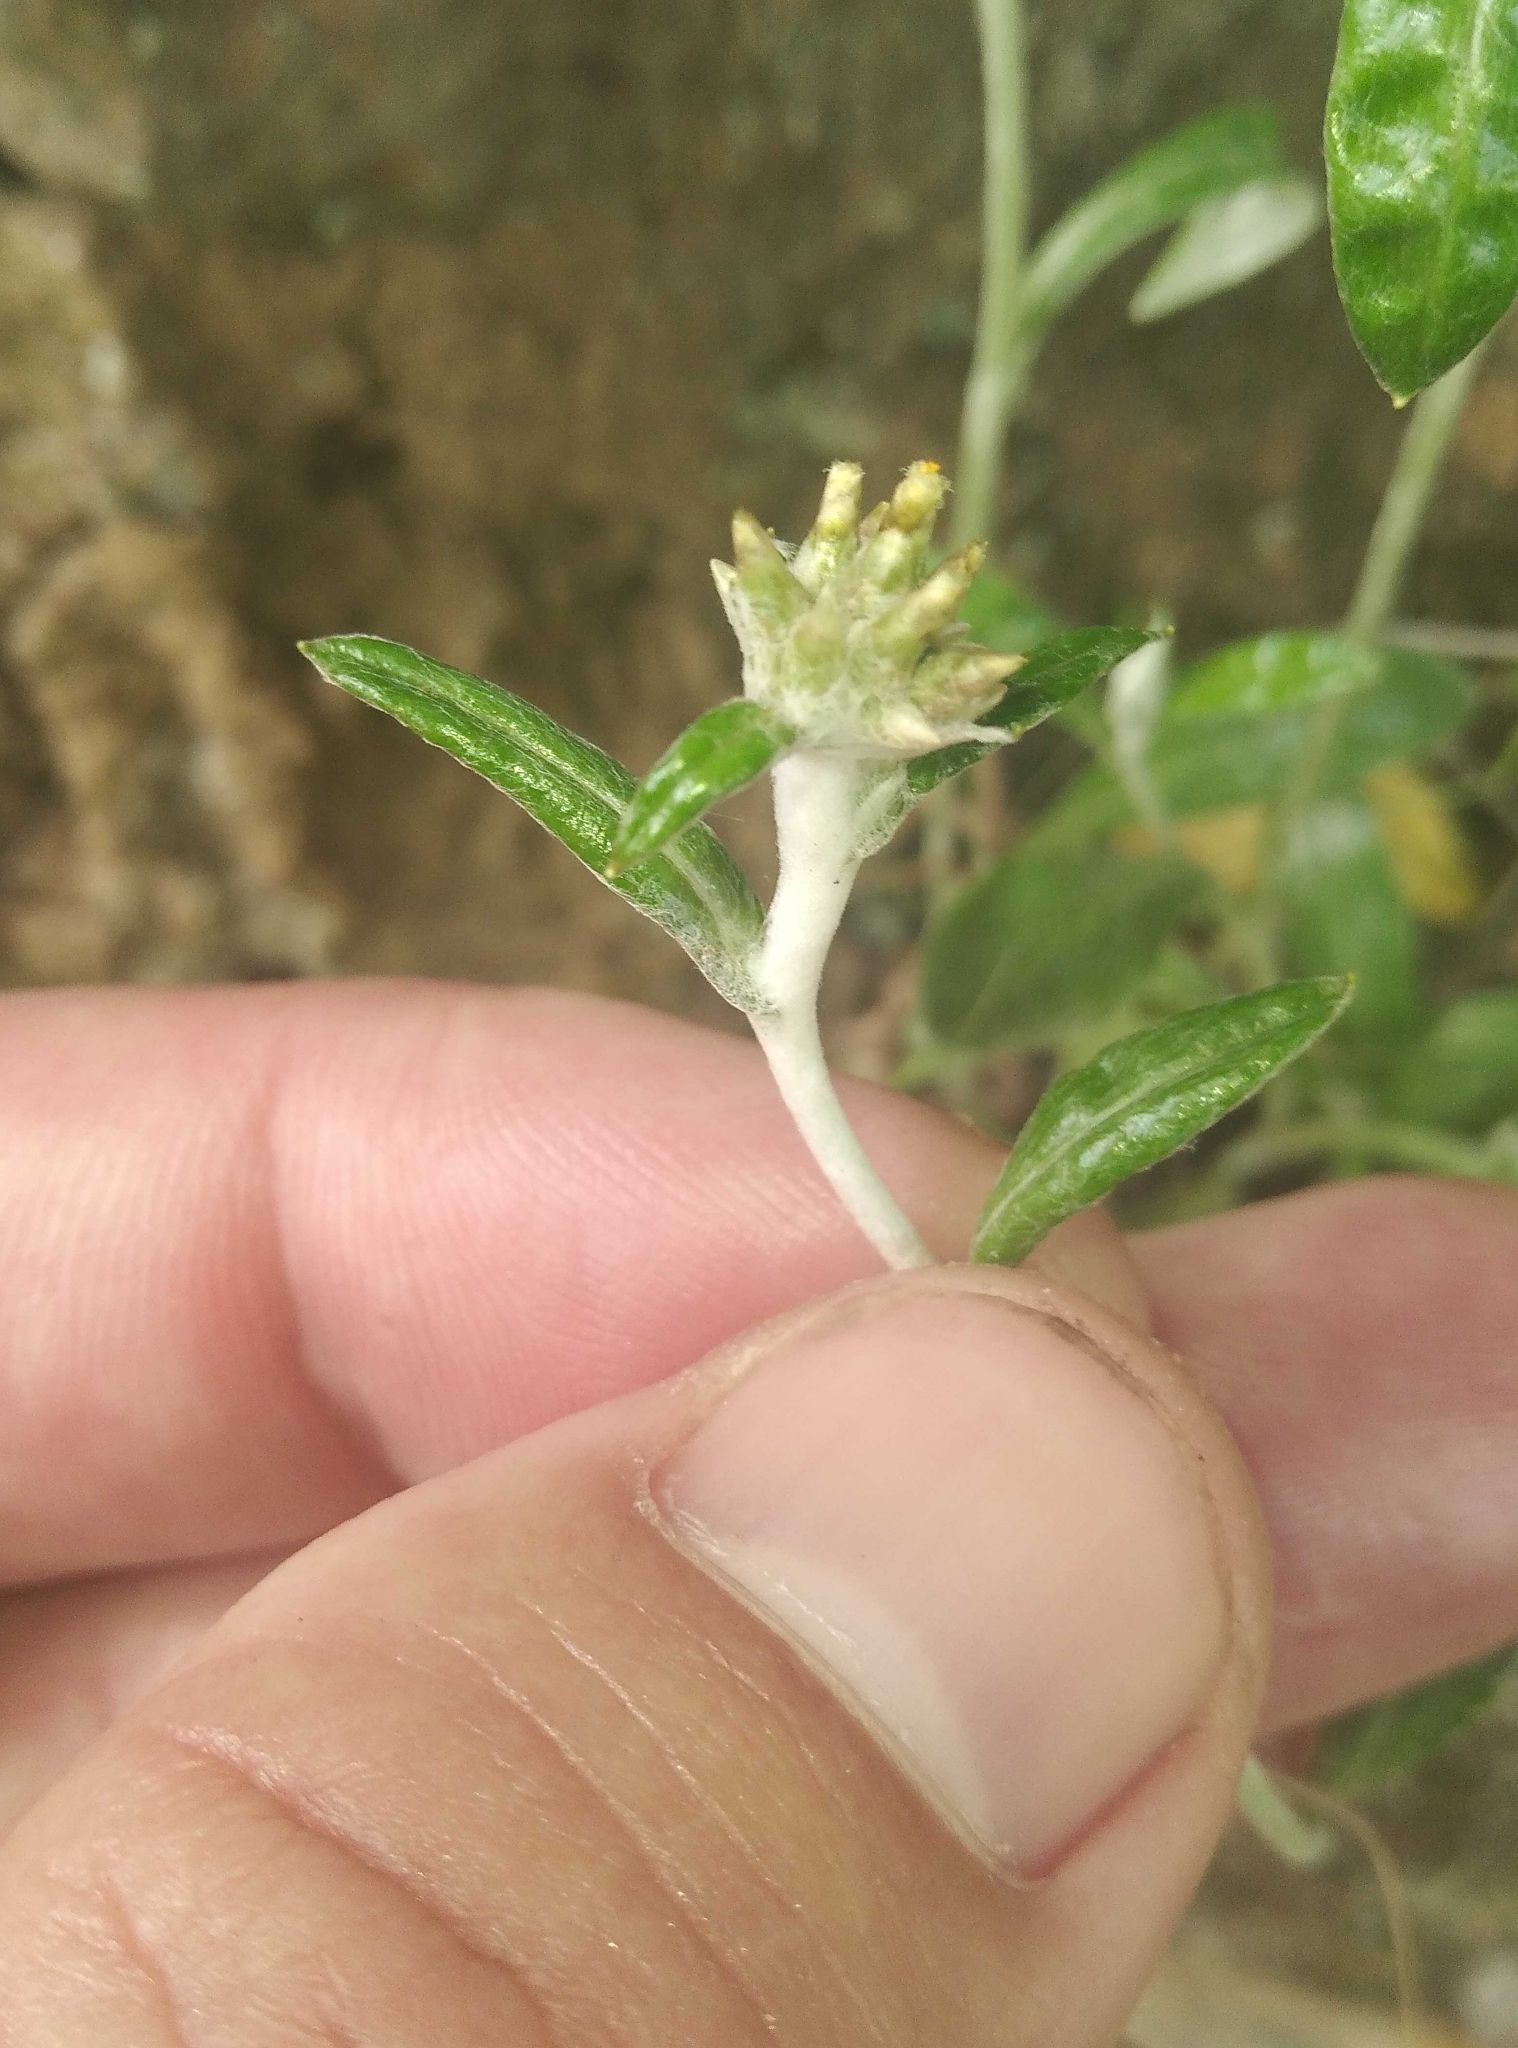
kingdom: Plantae
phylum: Tracheophyta
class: Magnoliopsida
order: Asterales
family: Asteraceae
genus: Euchiton
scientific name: Euchiton audax
